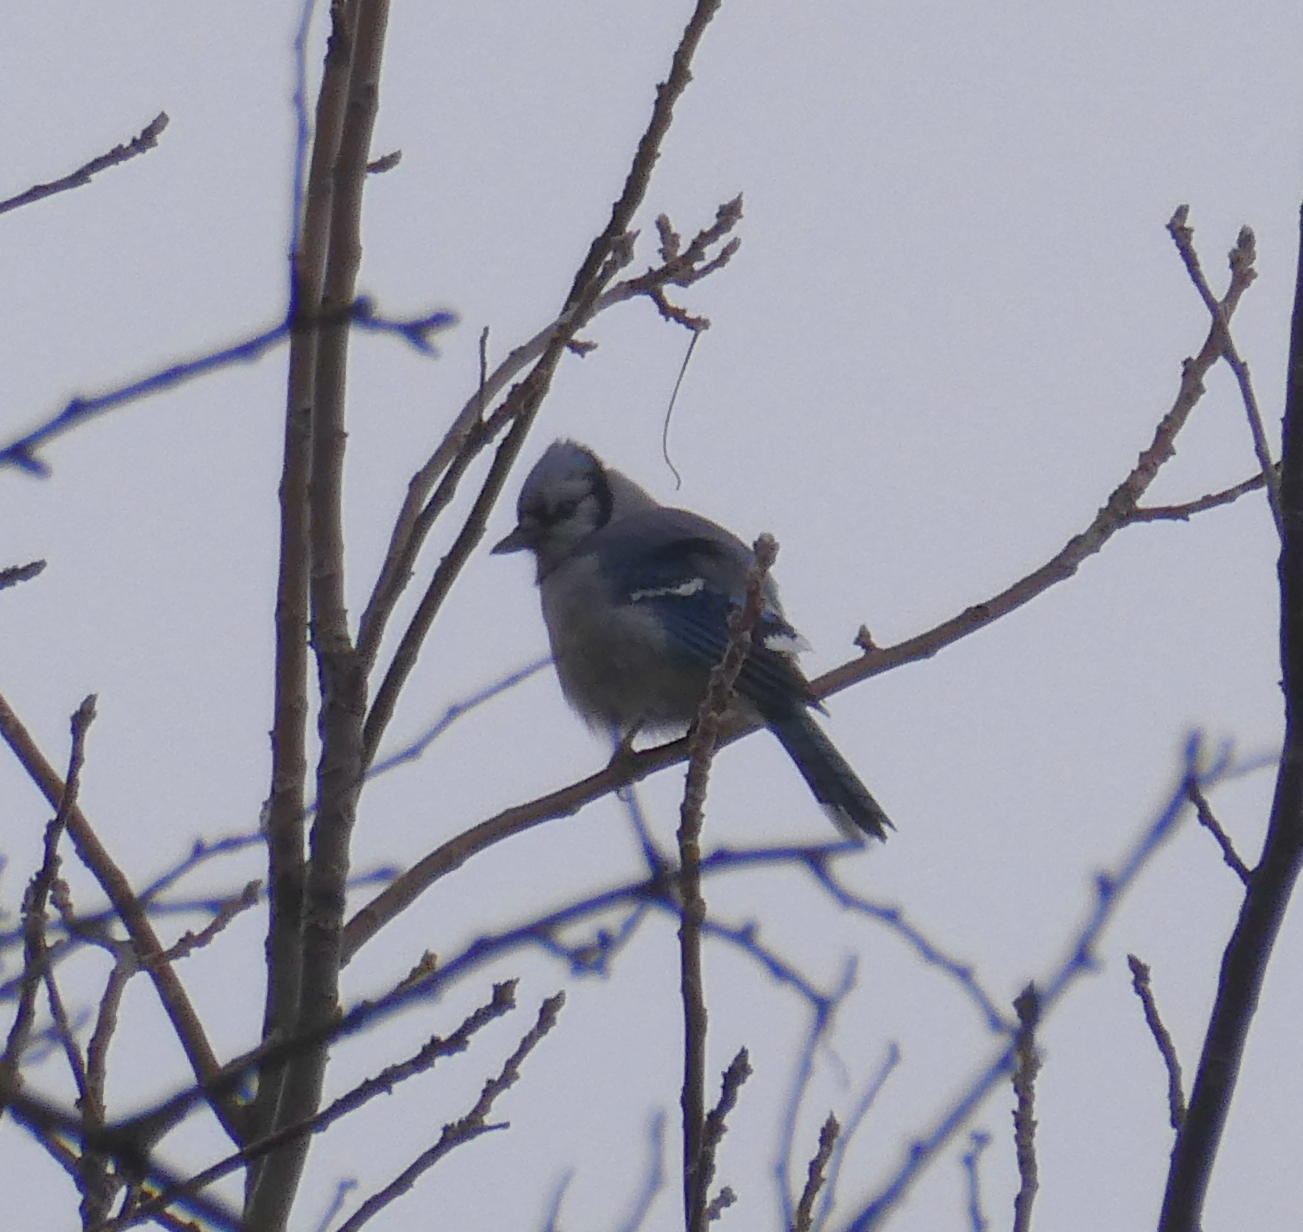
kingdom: Animalia
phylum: Chordata
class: Aves
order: Passeriformes
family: Corvidae
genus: Cyanocitta
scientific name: Cyanocitta cristata
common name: Blue jay
